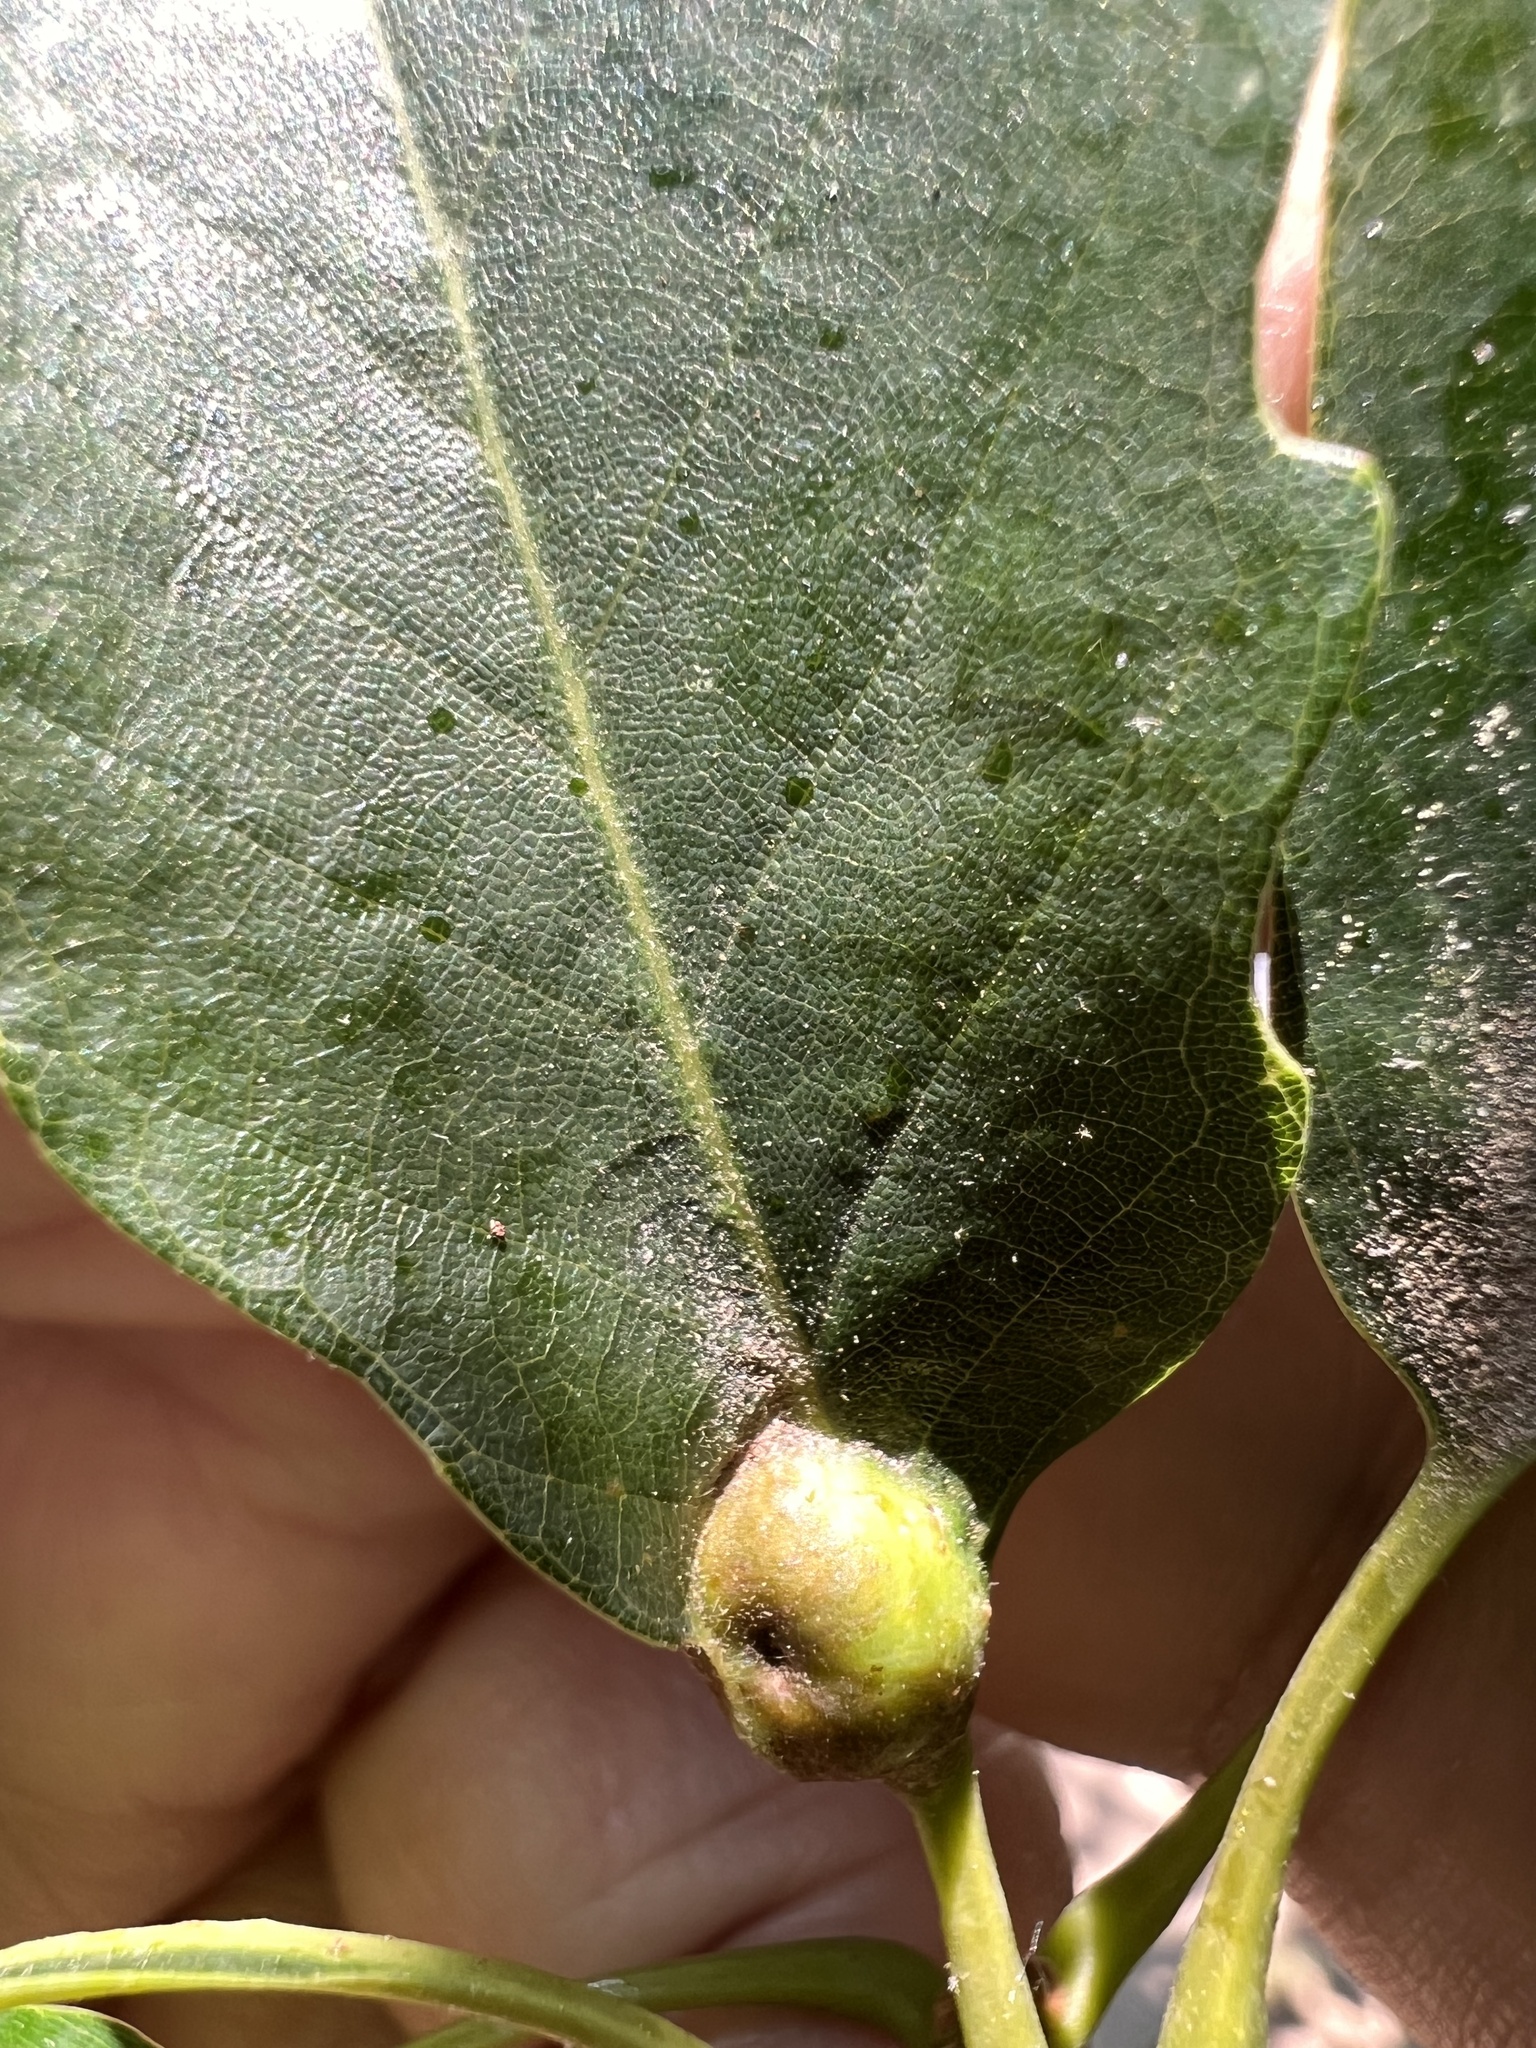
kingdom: Animalia
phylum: Arthropoda
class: Insecta
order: Hymenoptera
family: Cynipidae
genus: Andricus
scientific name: Andricus
